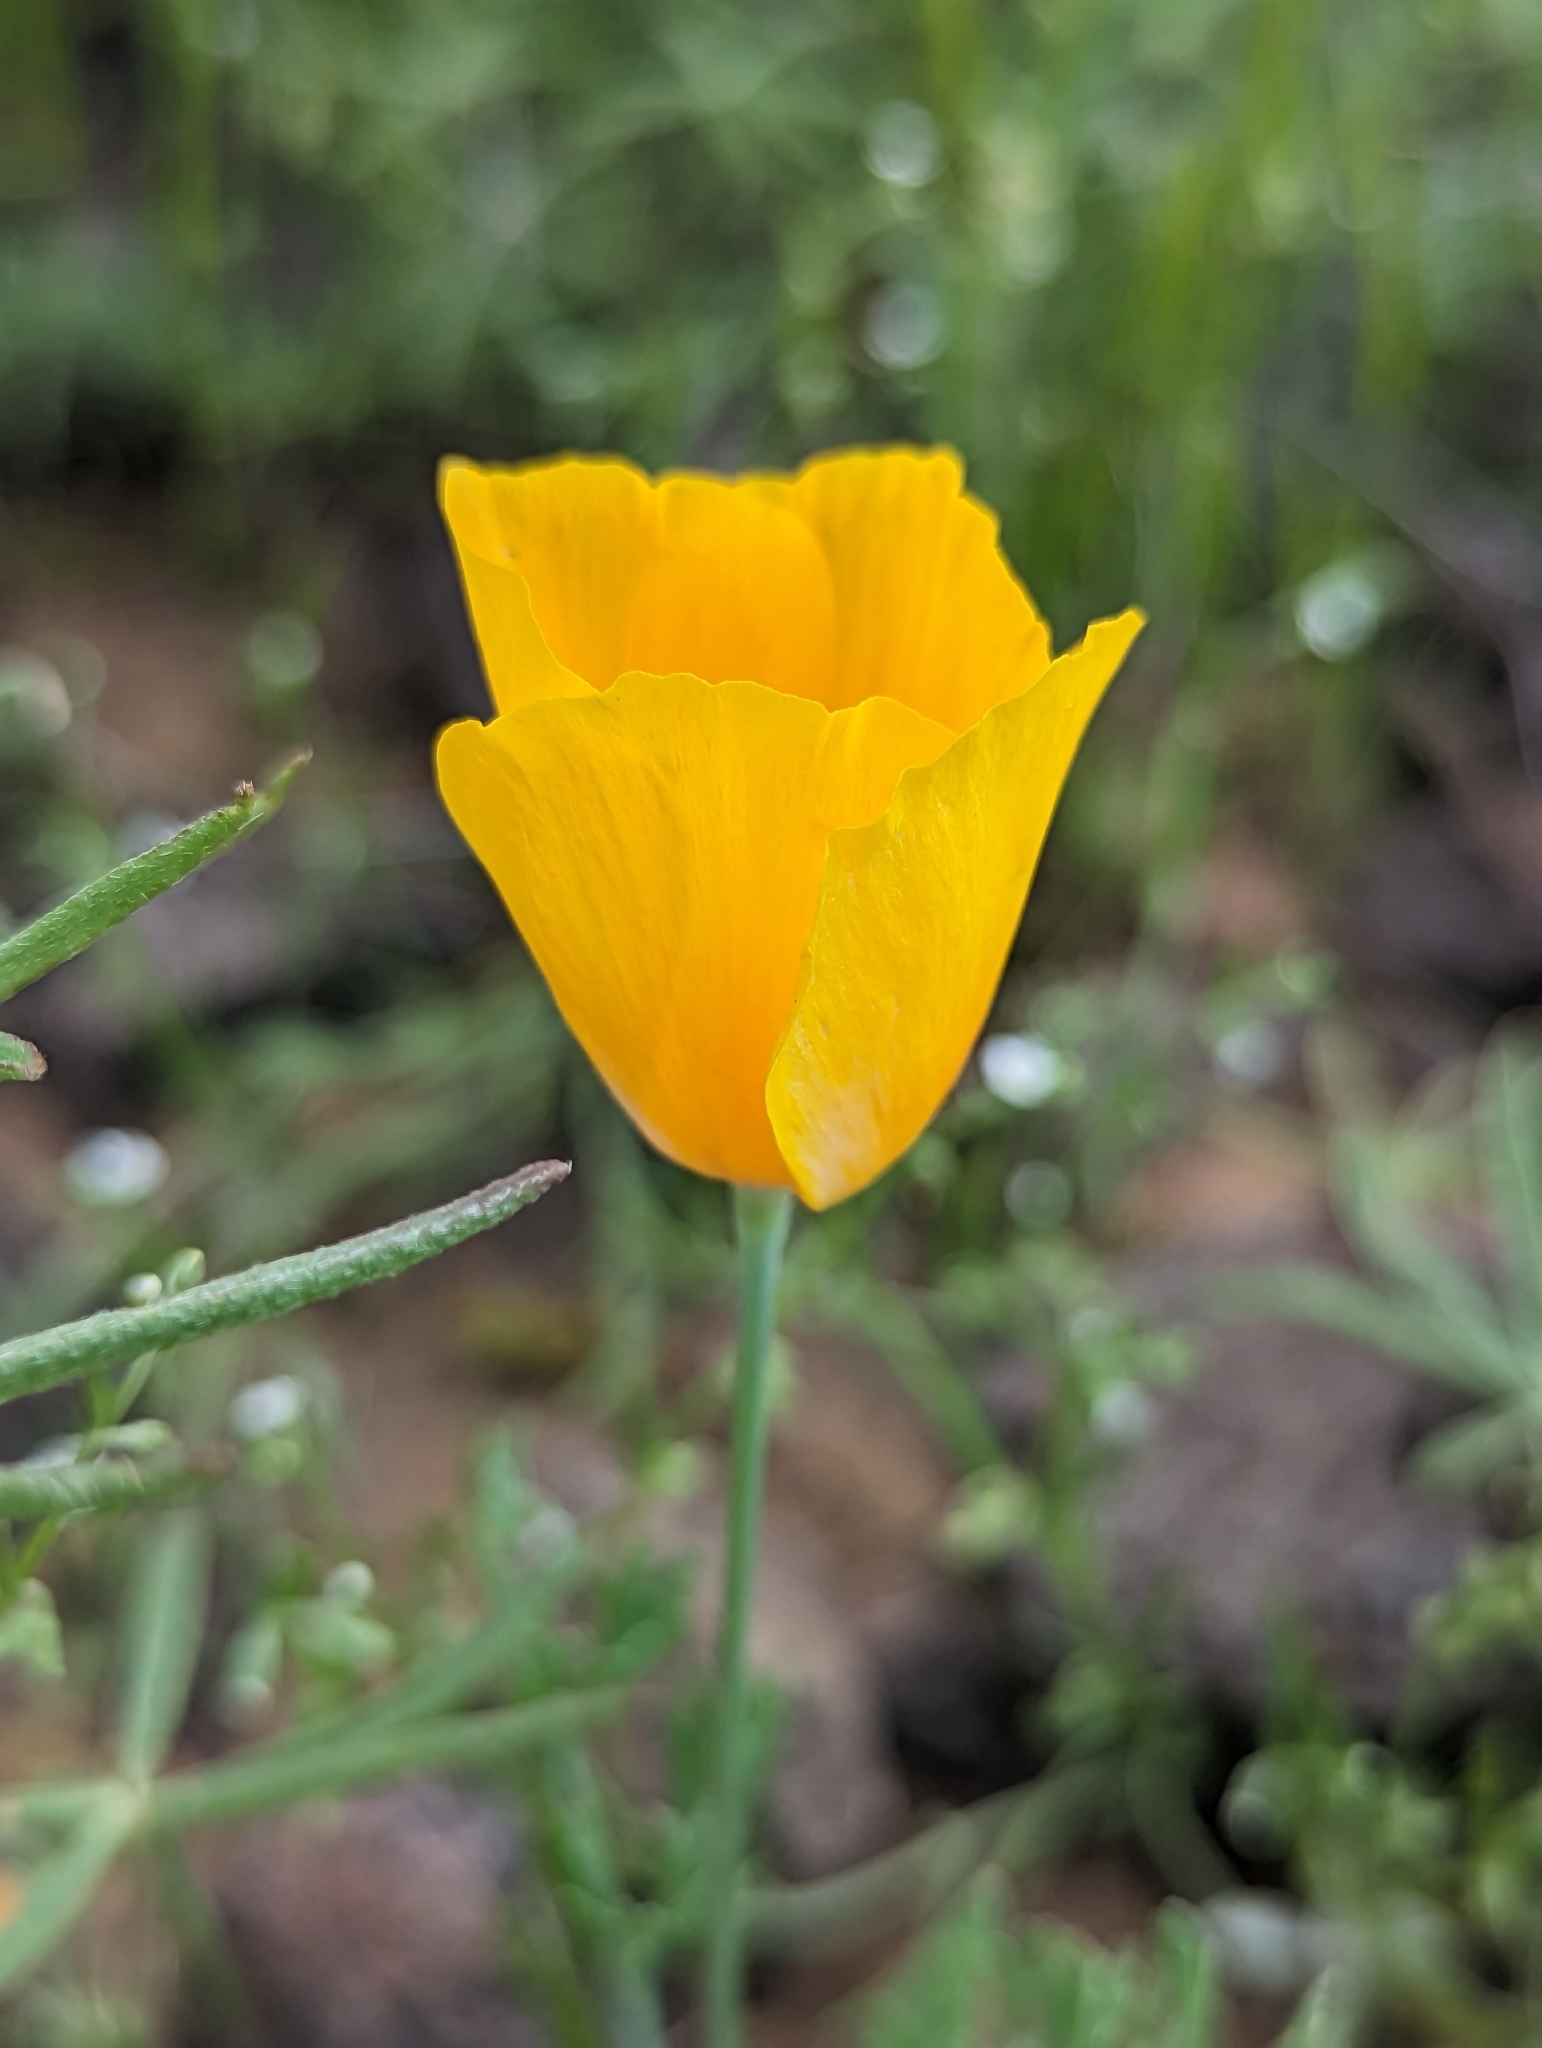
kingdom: Plantae
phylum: Tracheophyta
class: Magnoliopsida
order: Ranunculales
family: Papaveraceae
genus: Eschscholzia
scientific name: Eschscholzia californica
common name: California poppy
